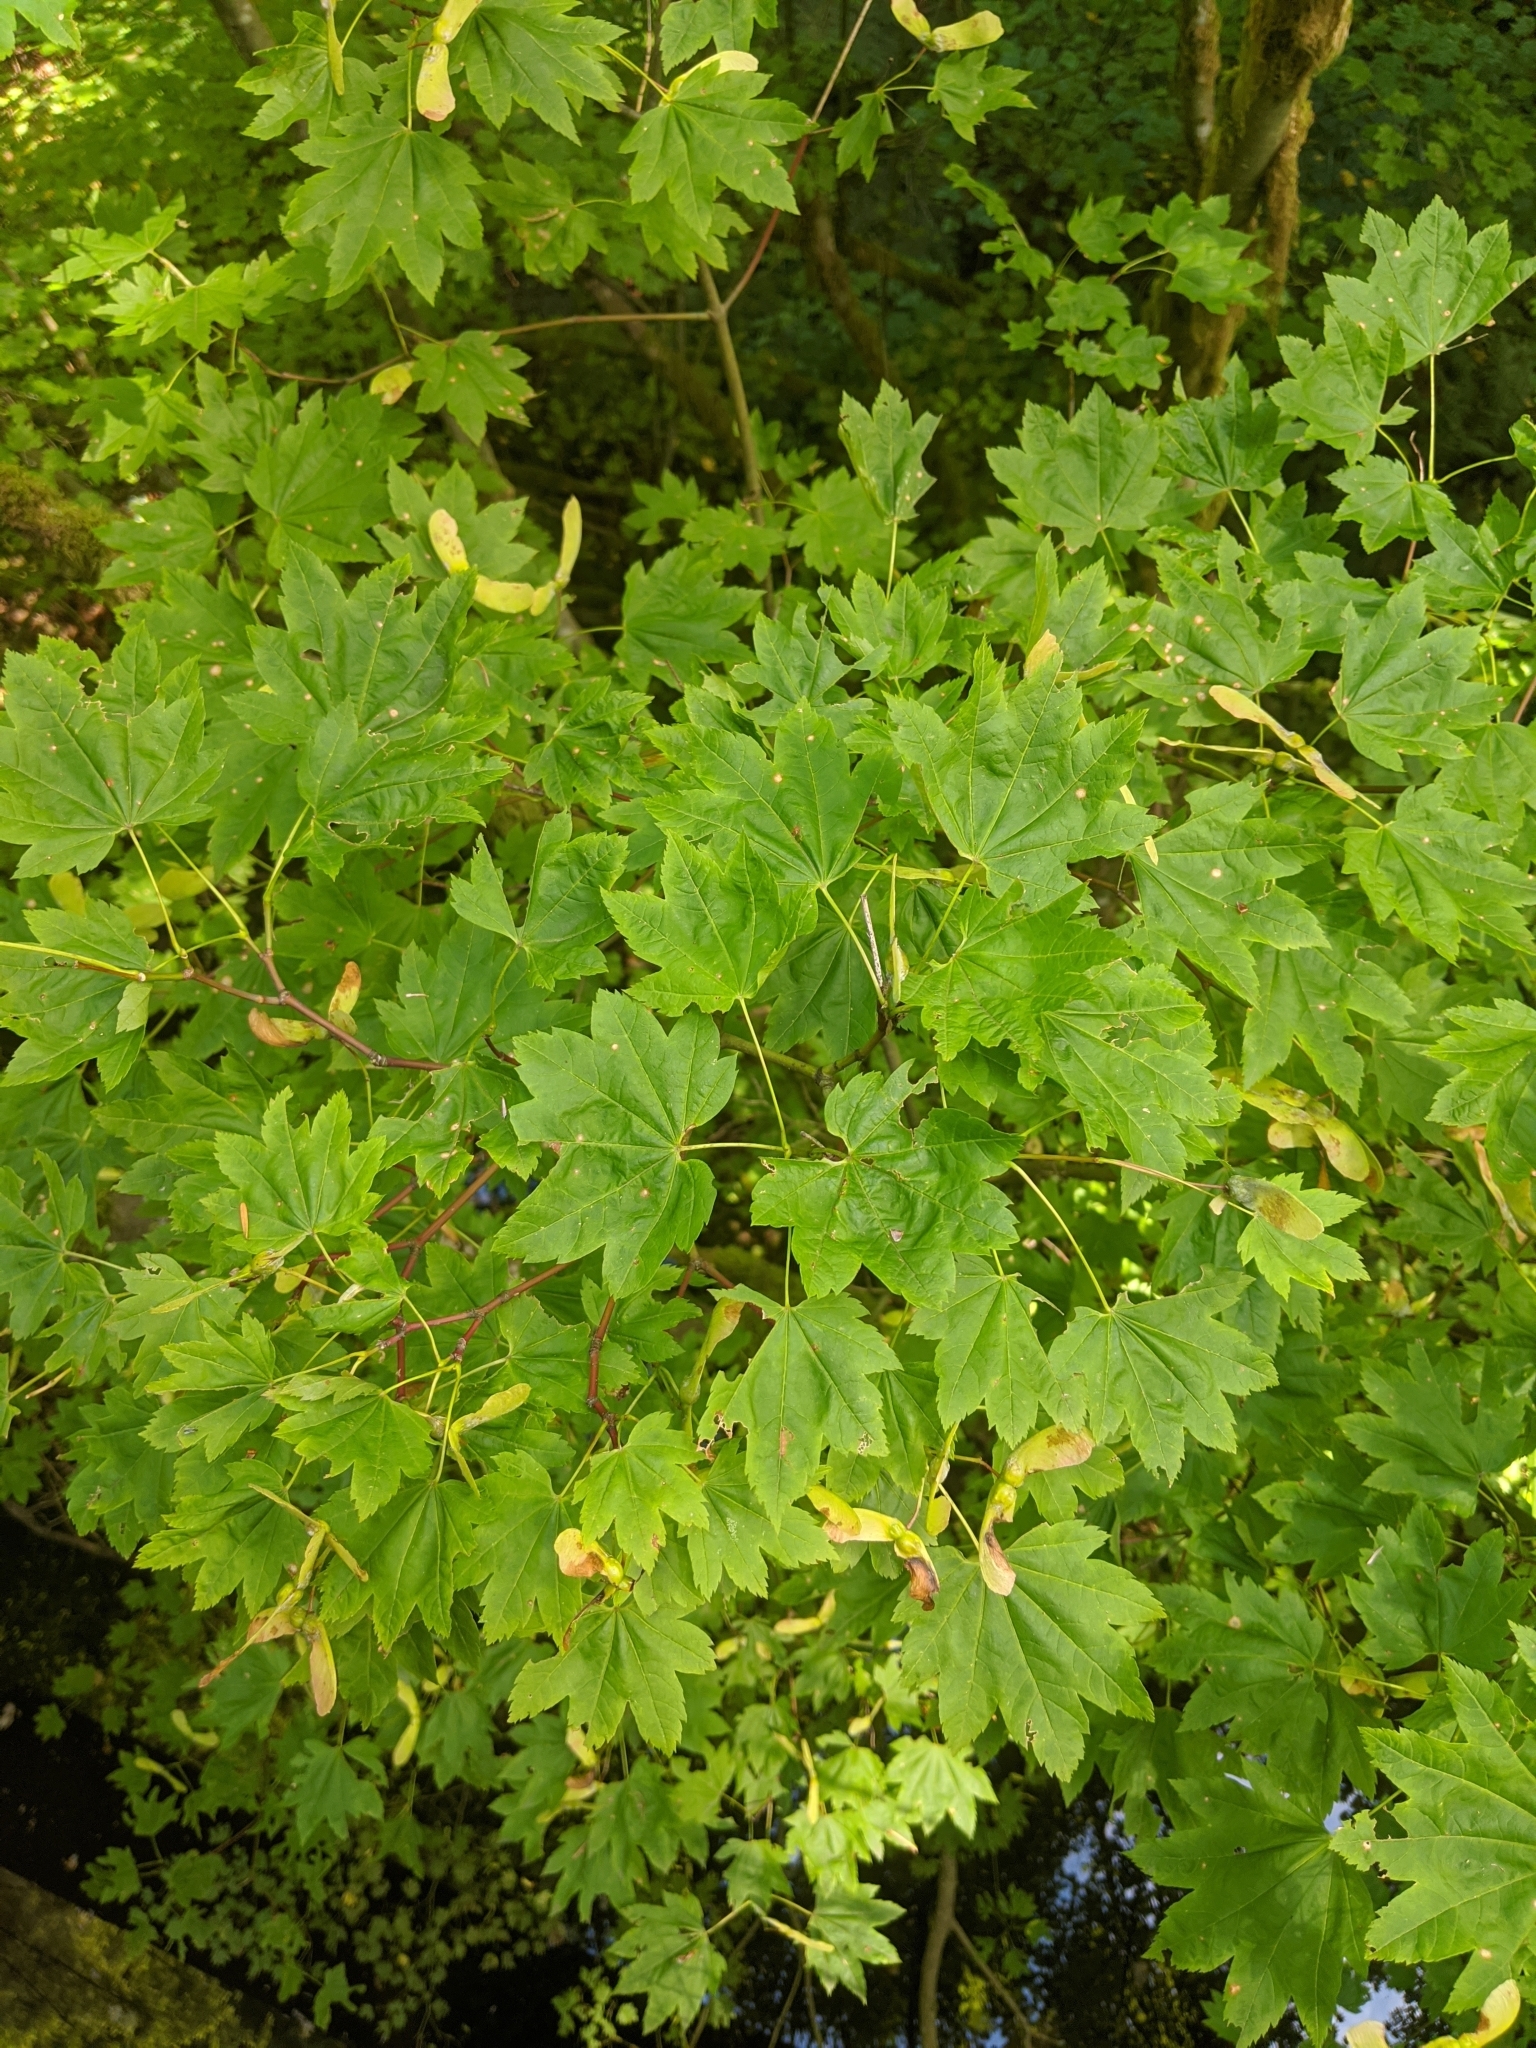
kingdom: Plantae
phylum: Tracheophyta
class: Magnoliopsida
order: Sapindales
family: Sapindaceae
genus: Acer
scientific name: Acer circinatum
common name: Vine maple
